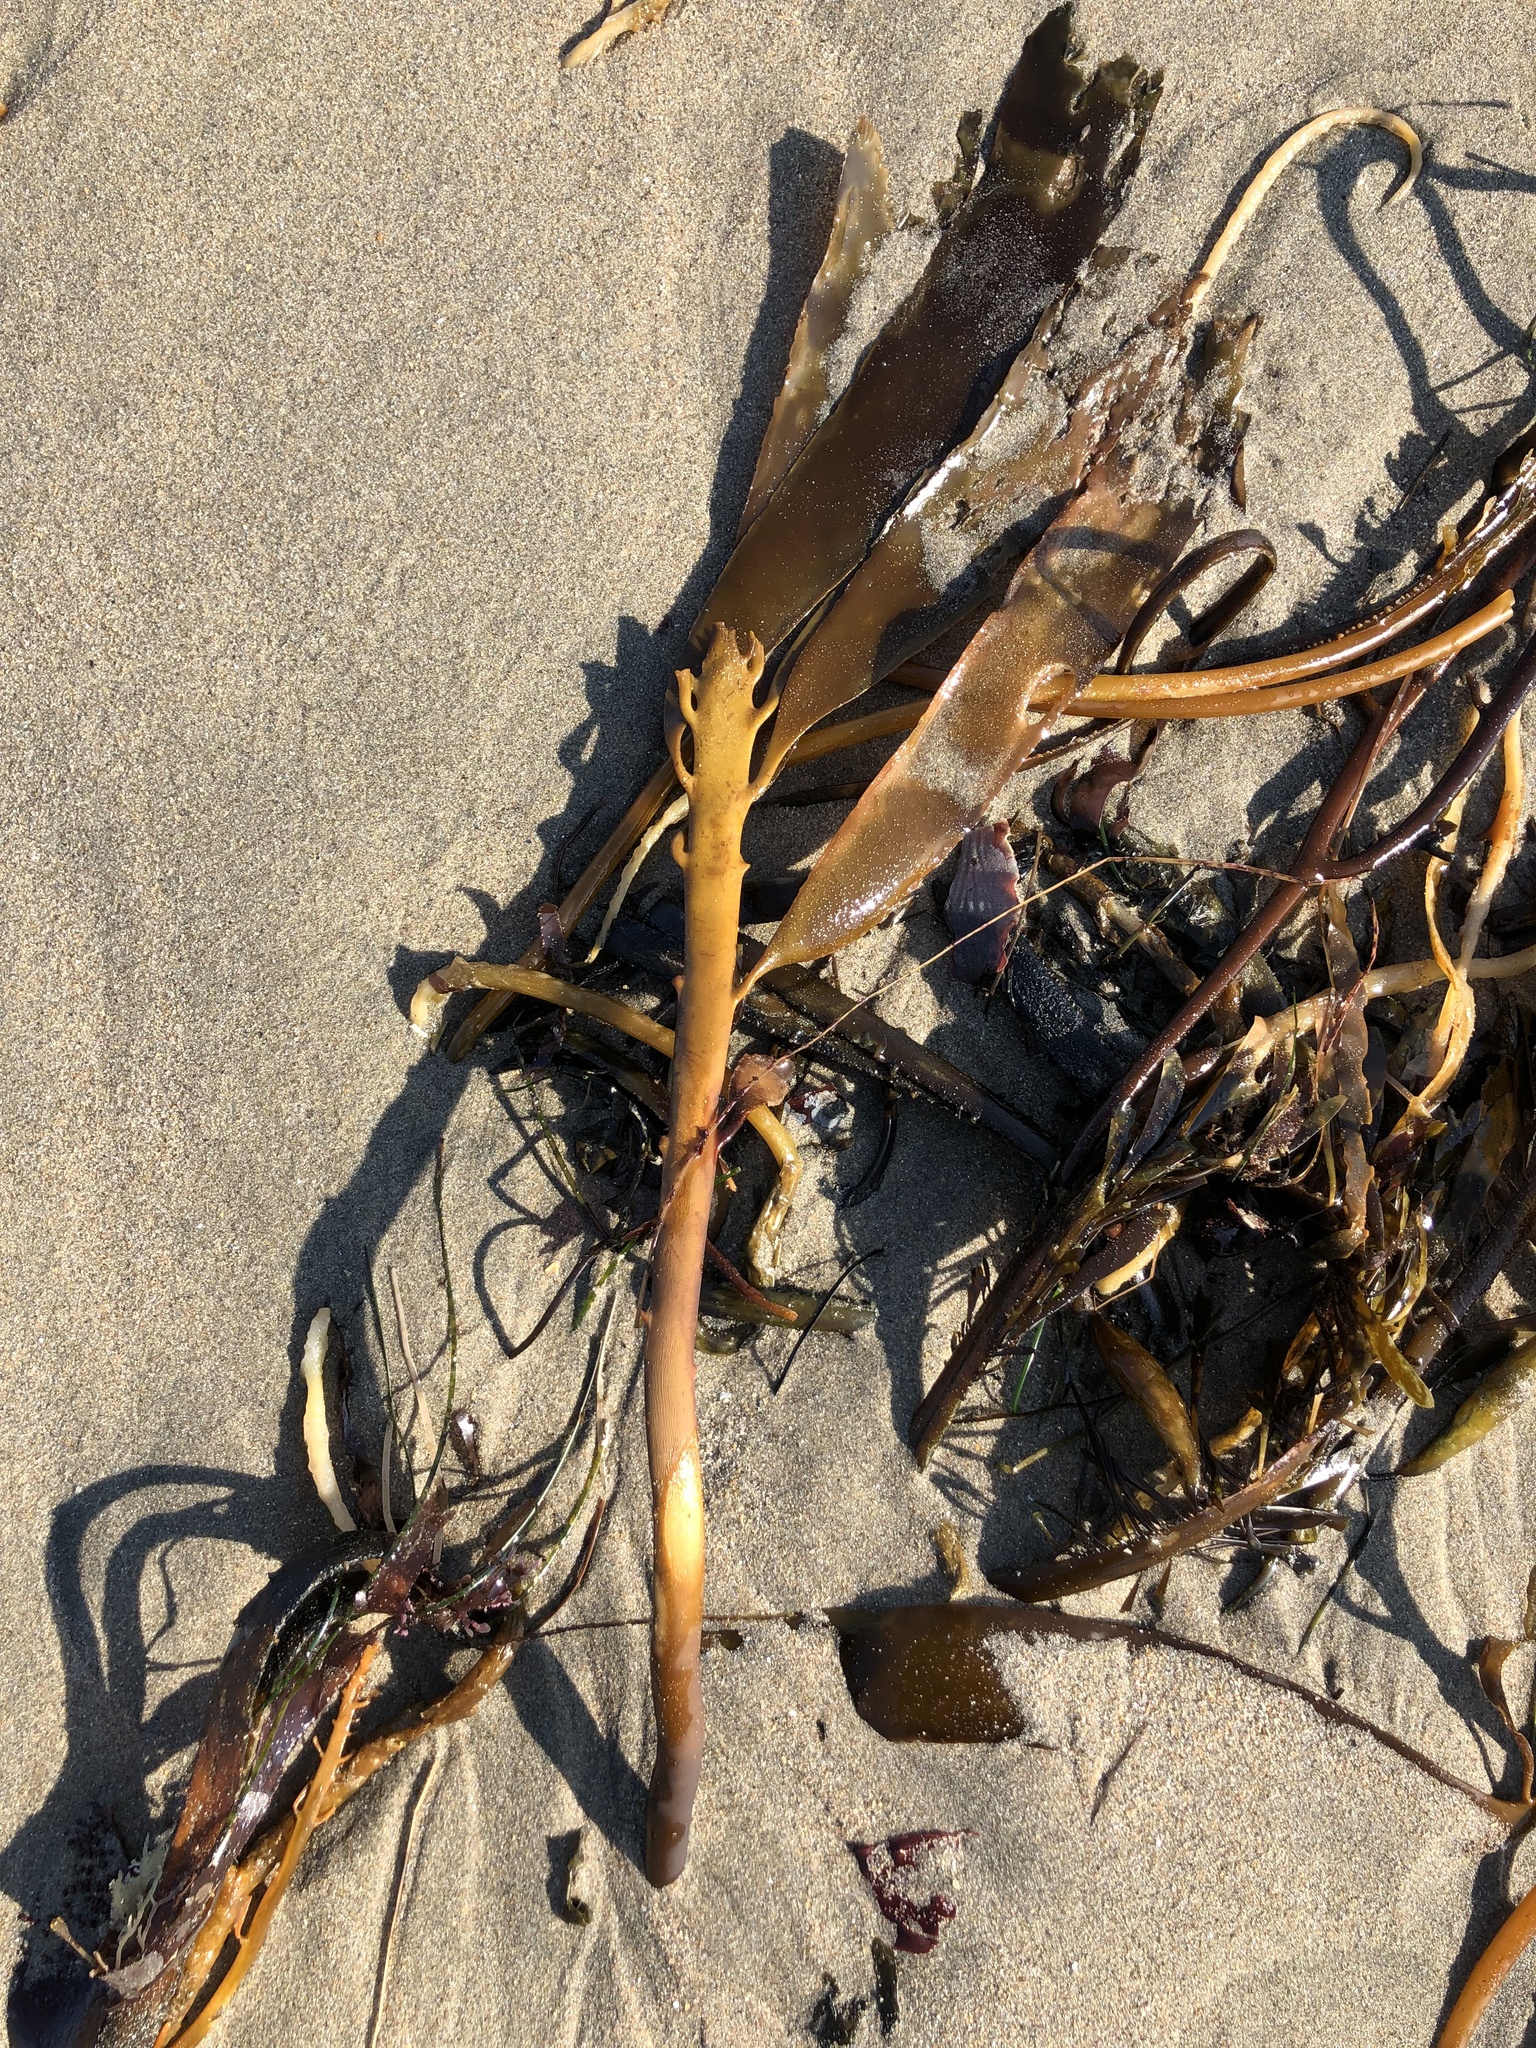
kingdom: Chromista
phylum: Ochrophyta
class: Phaeophyceae
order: Laminariales
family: Alariaceae
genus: Pterygophora
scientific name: Pterygophora californica
